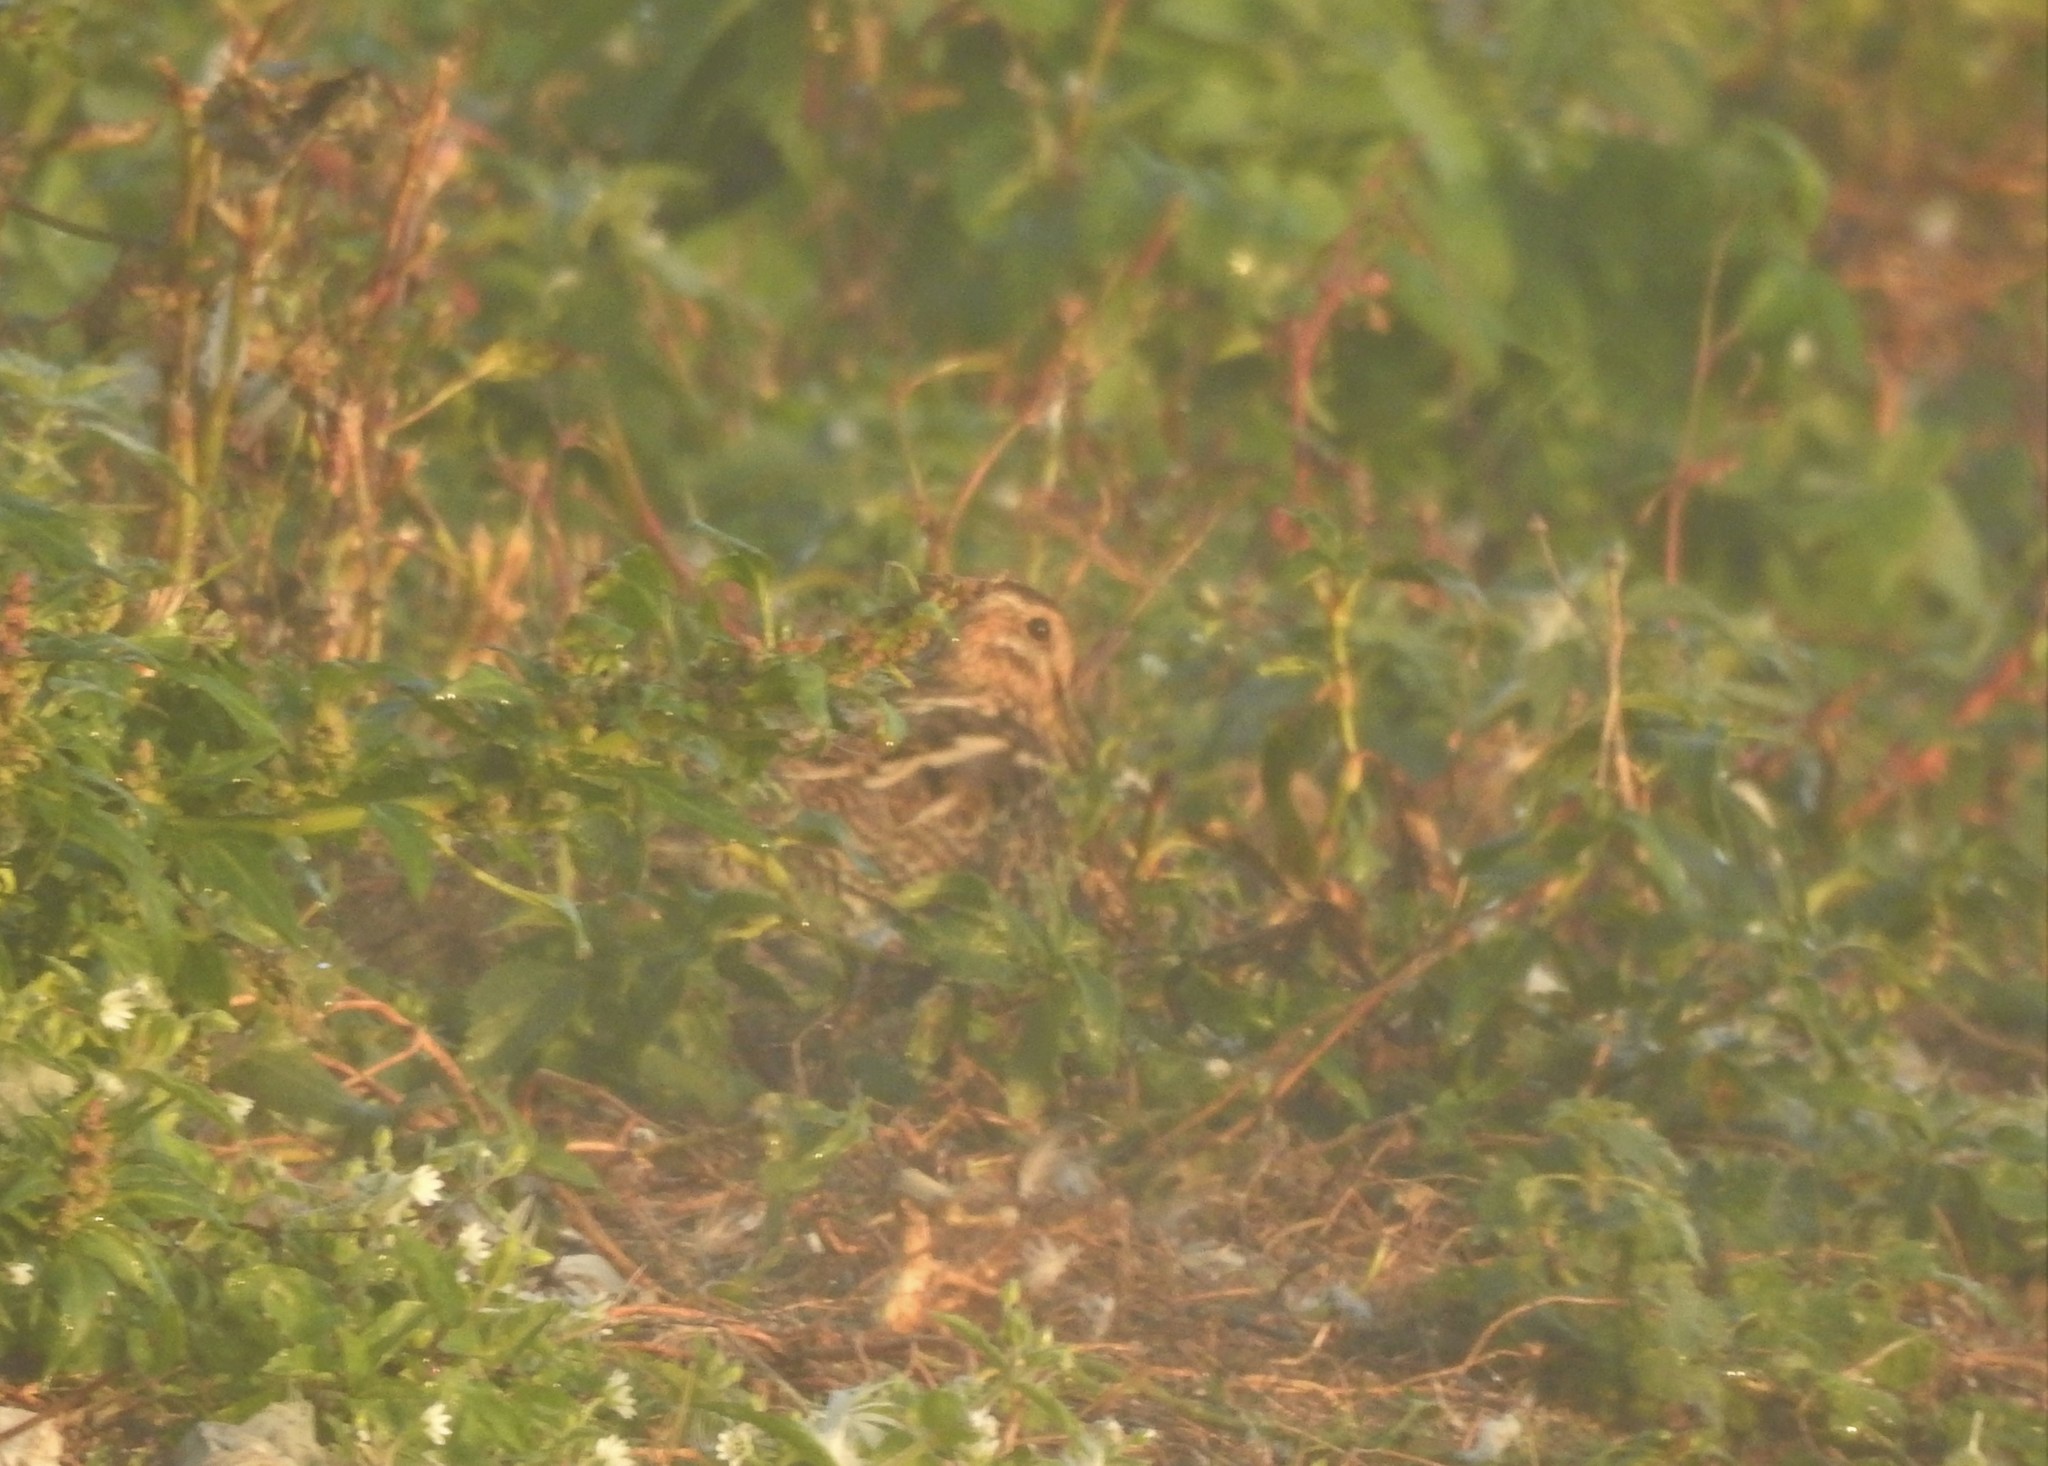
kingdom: Animalia
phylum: Chordata
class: Aves
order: Charadriiformes
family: Scolopacidae
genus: Gallinago
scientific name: Gallinago gallinago
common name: Common snipe
